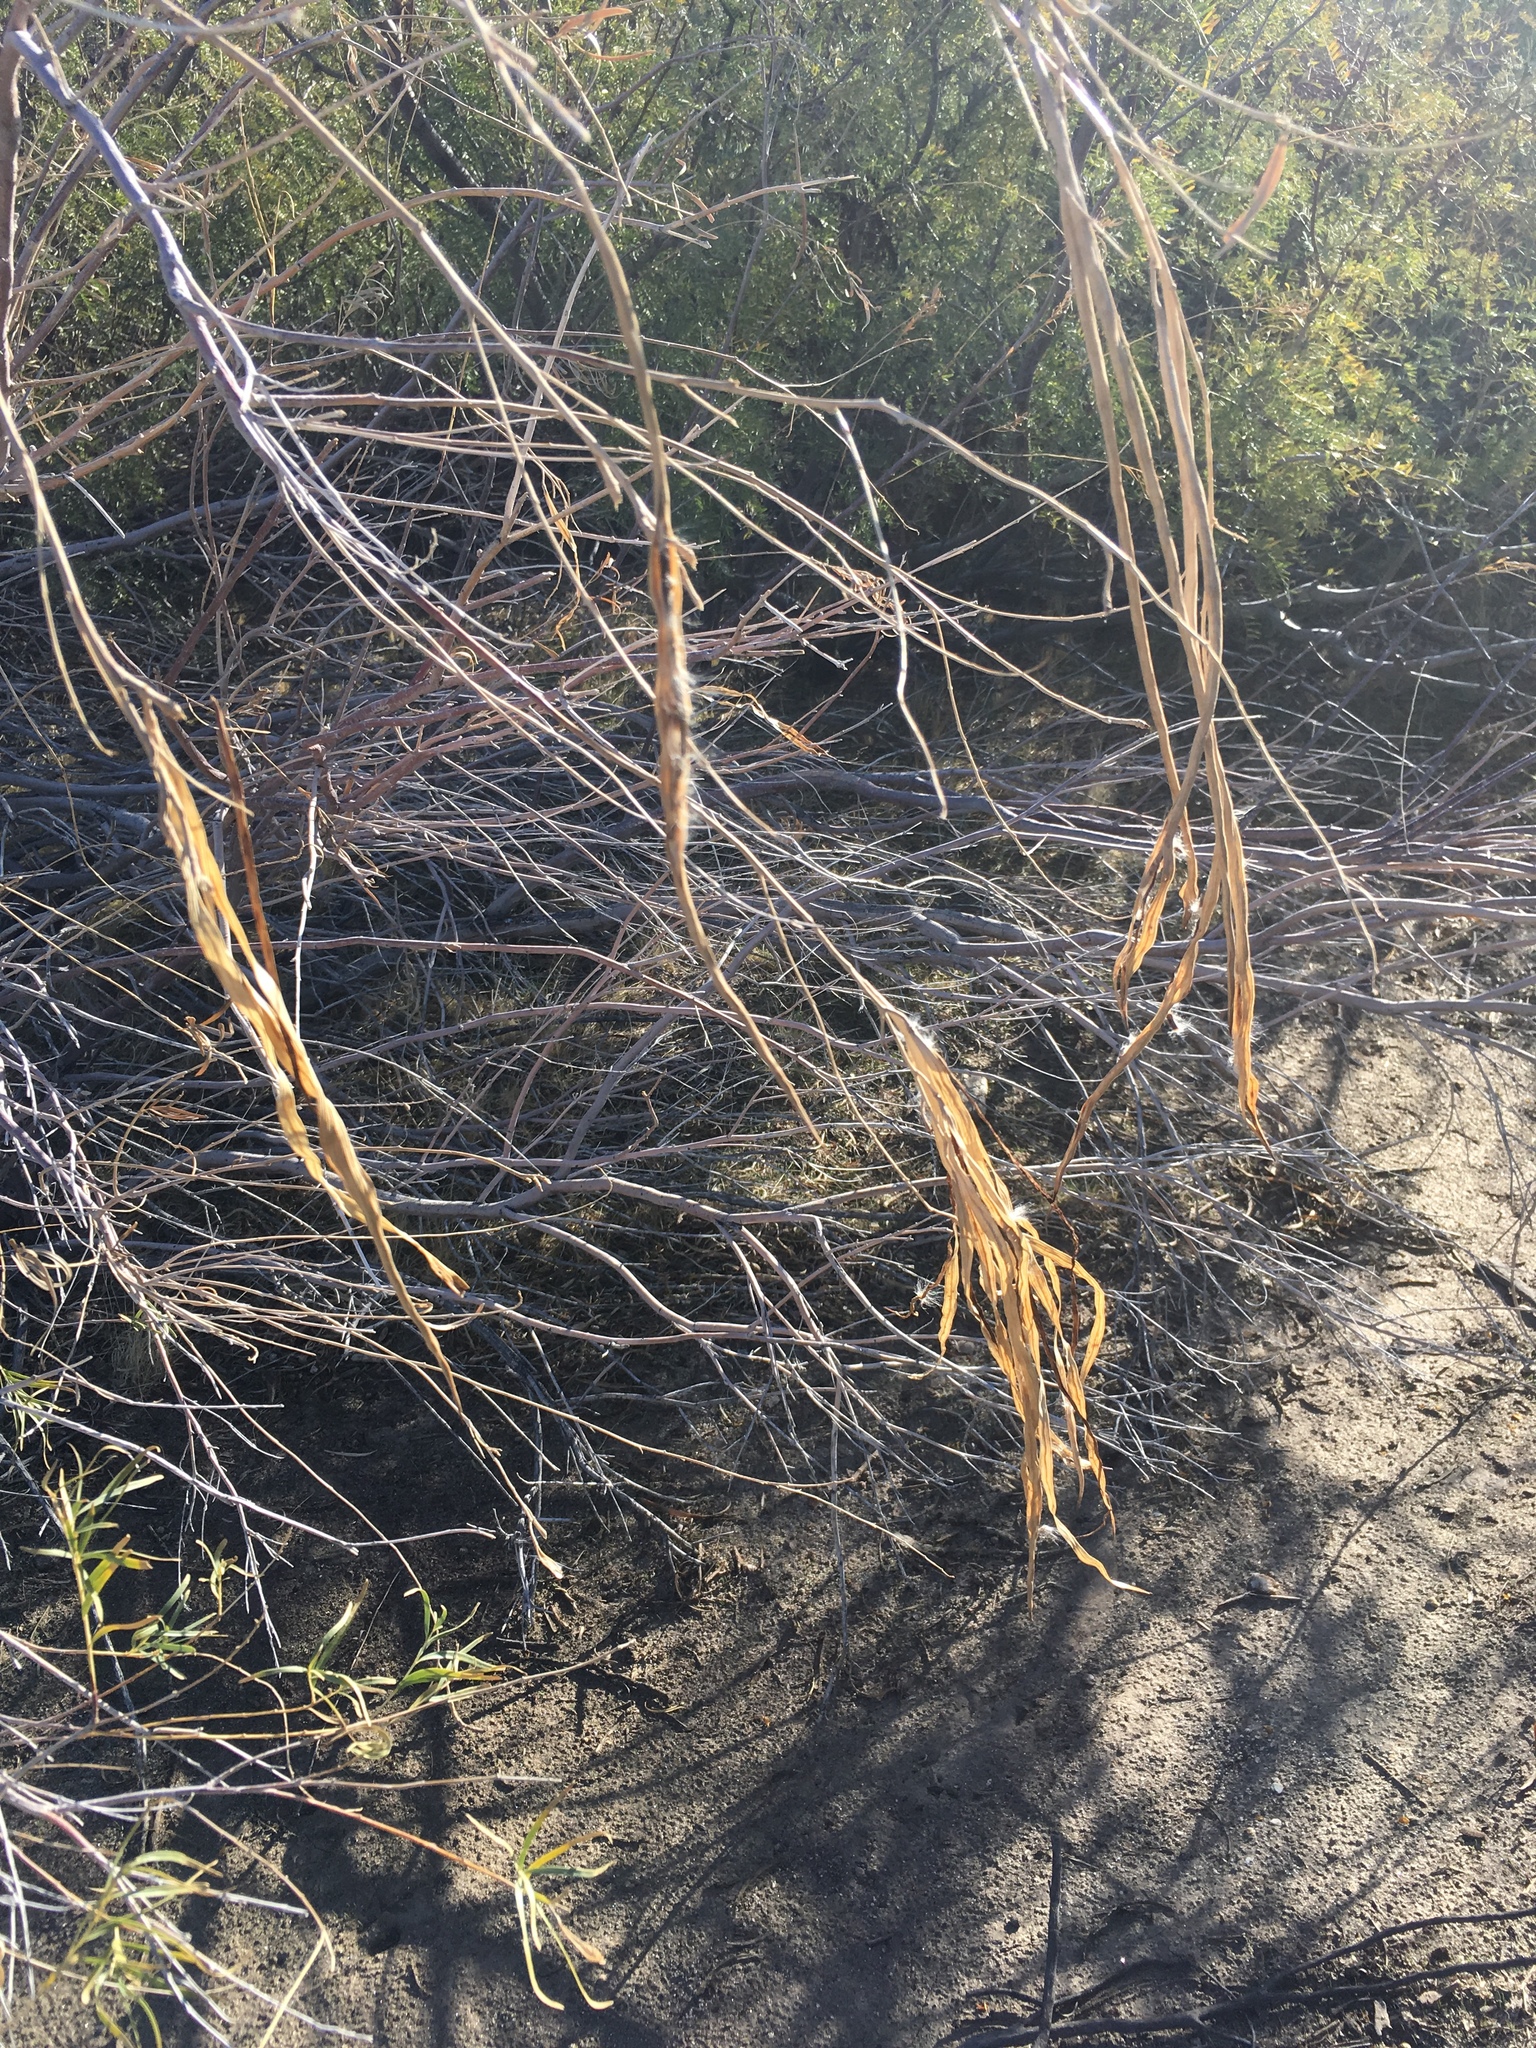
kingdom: Plantae
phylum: Tracheophyta
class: Magnoliopsida
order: Lamiales
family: Bignoniaceae
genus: Chilopsis
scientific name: Chilopsis linearis
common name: Desert-willow
